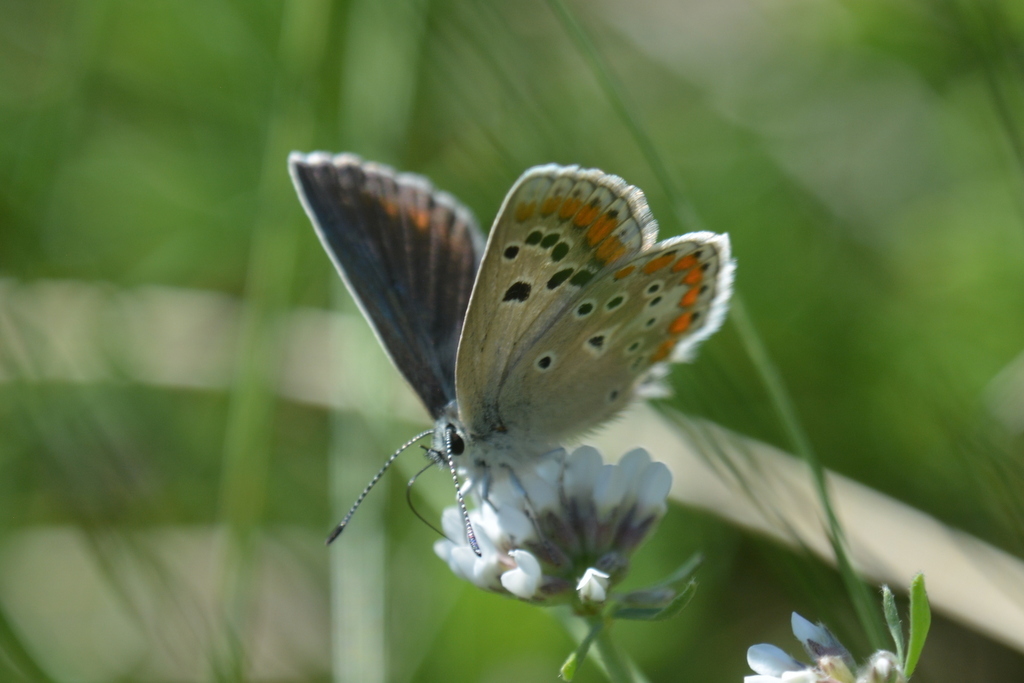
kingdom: Animalia
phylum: Arthropoda
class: Insecta
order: Lepidoptera
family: Lycaenidae
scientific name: Lycaenidae
